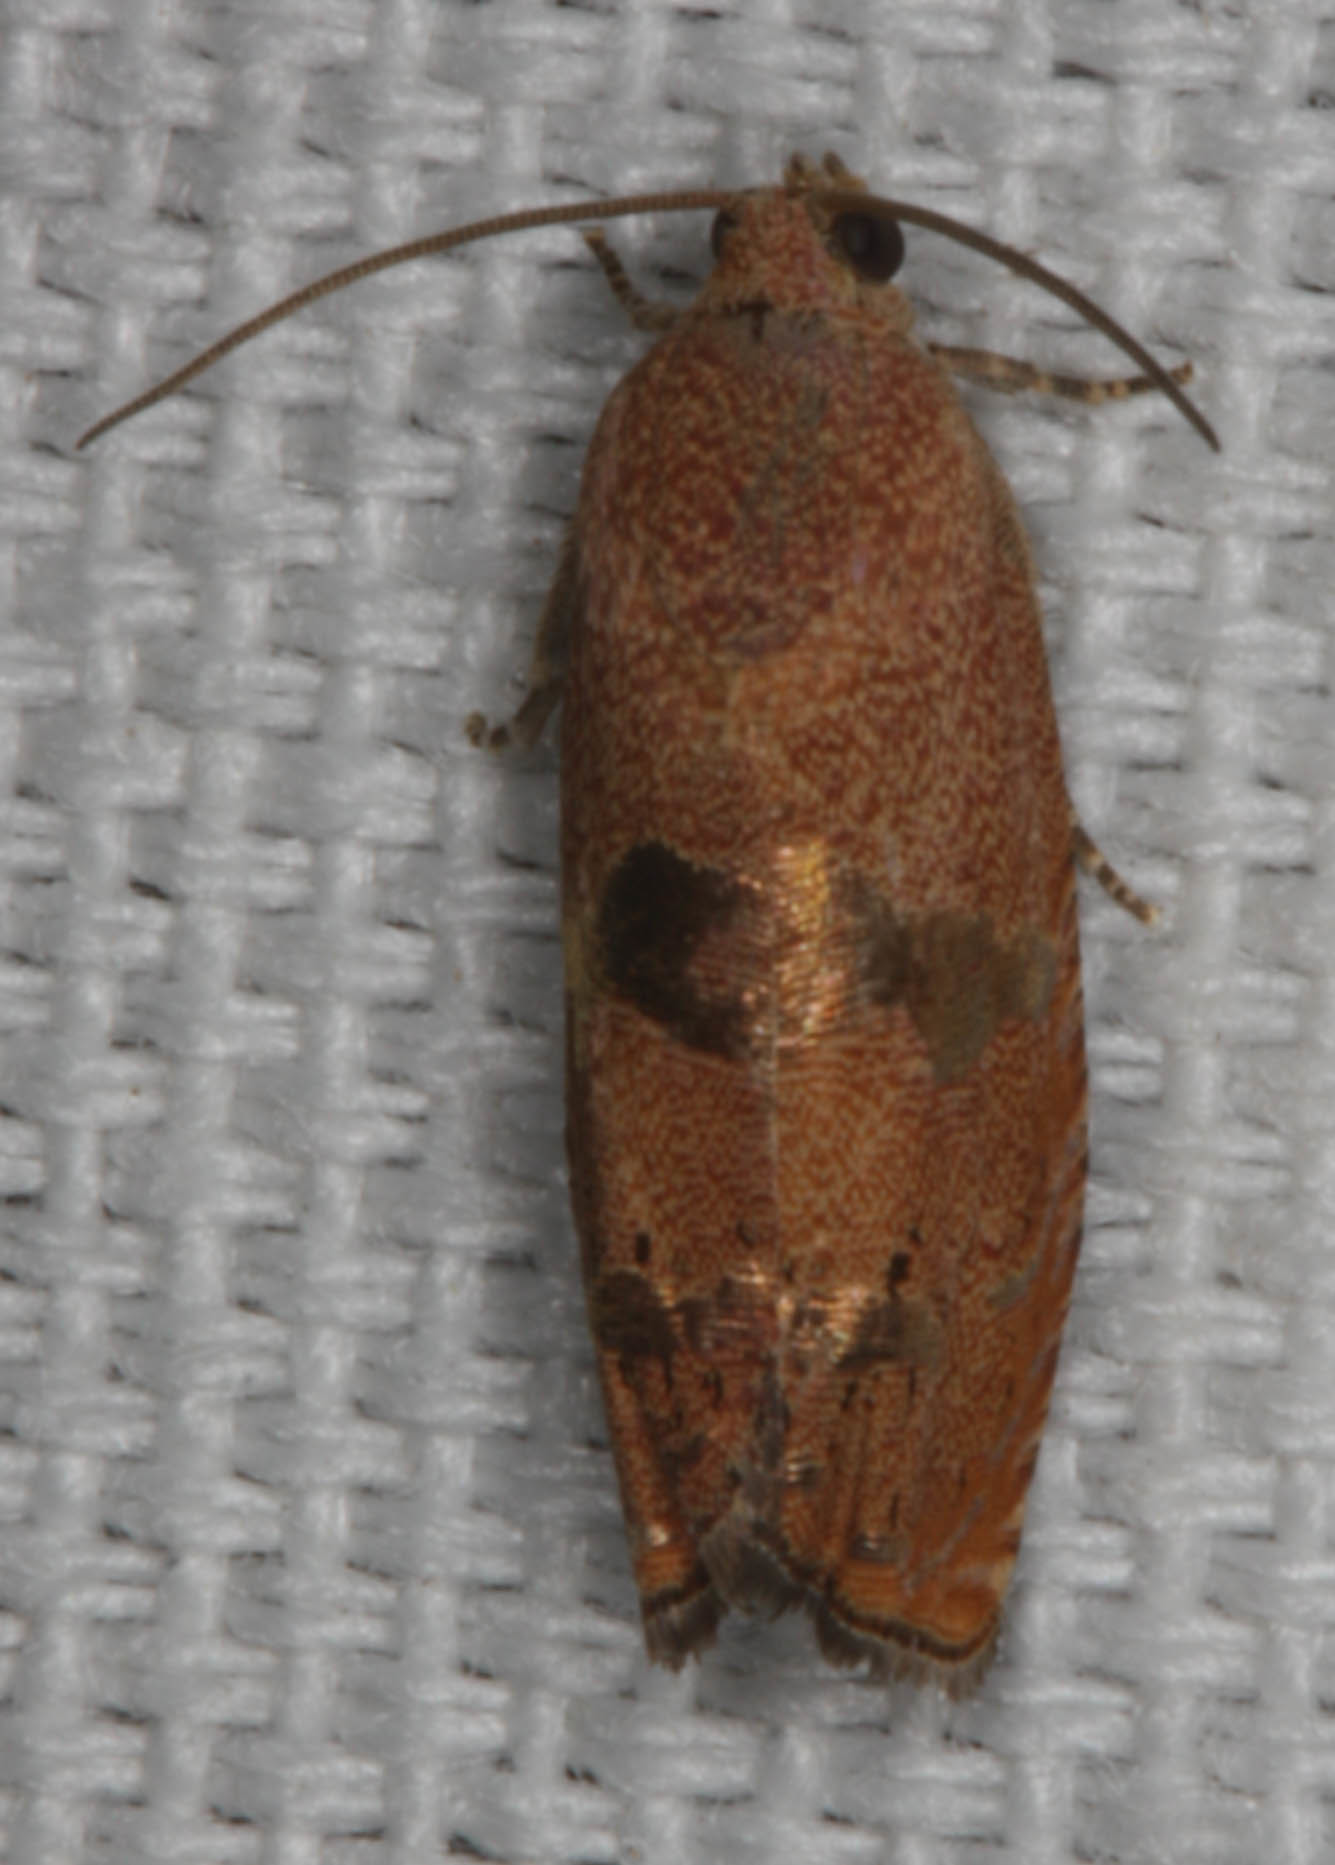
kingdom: Animalia
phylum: Arthropoda
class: Insecta
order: Lepidoptera
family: Tortricidae
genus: Cydia
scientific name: Cydia latiferreana
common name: Filbertworm moth
